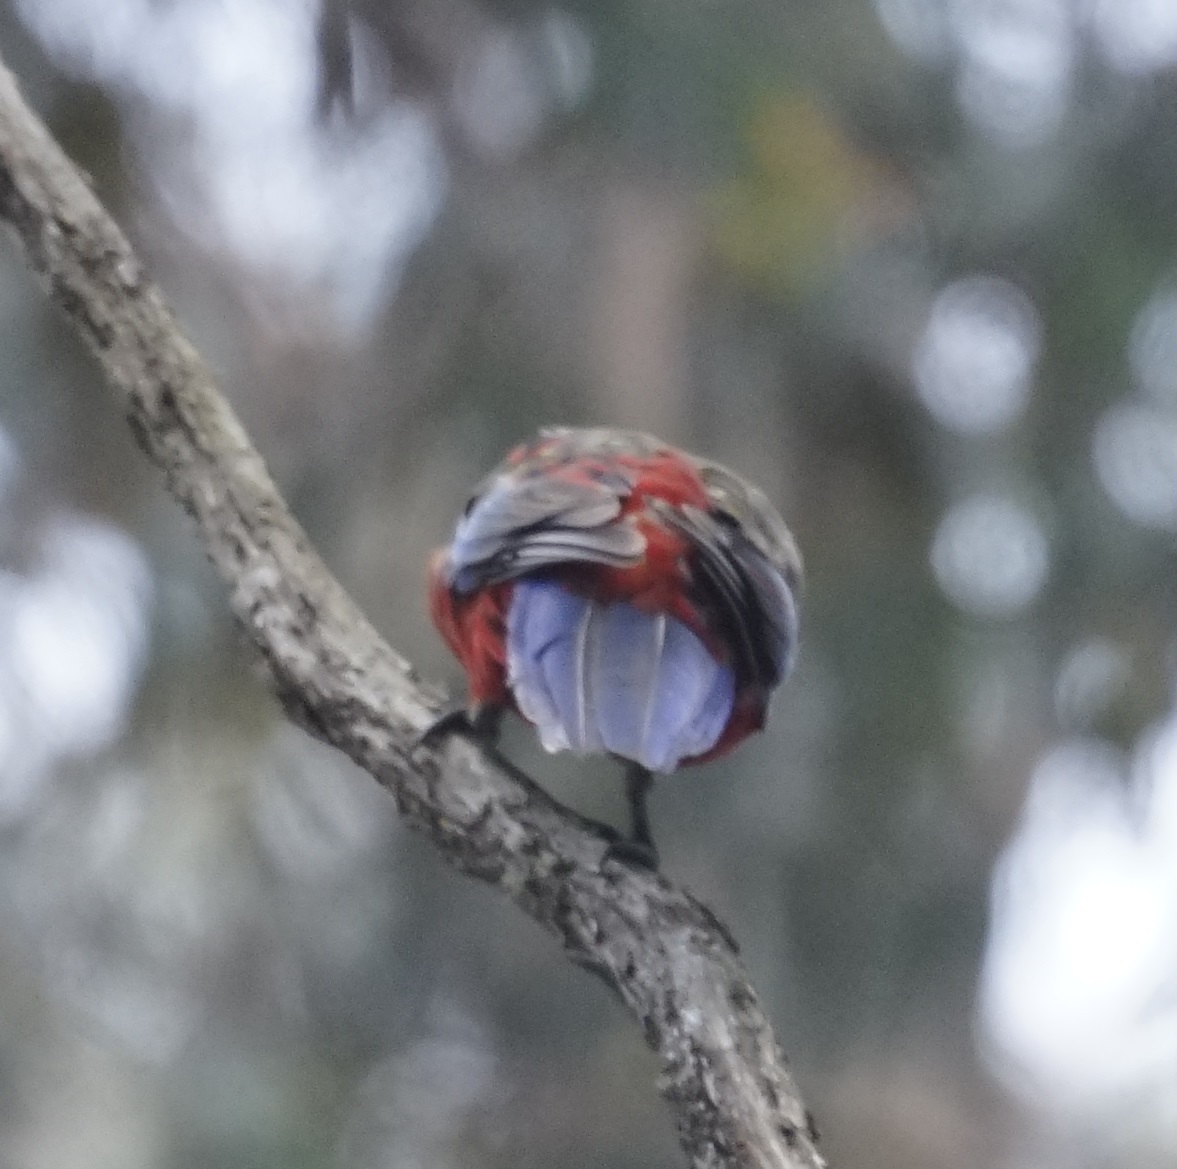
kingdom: Animalia
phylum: Chordata
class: Aves
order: Psittaciformes
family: Psittacidae
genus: Platycercus
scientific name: Platycercus elegans
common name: Crimson rosella
